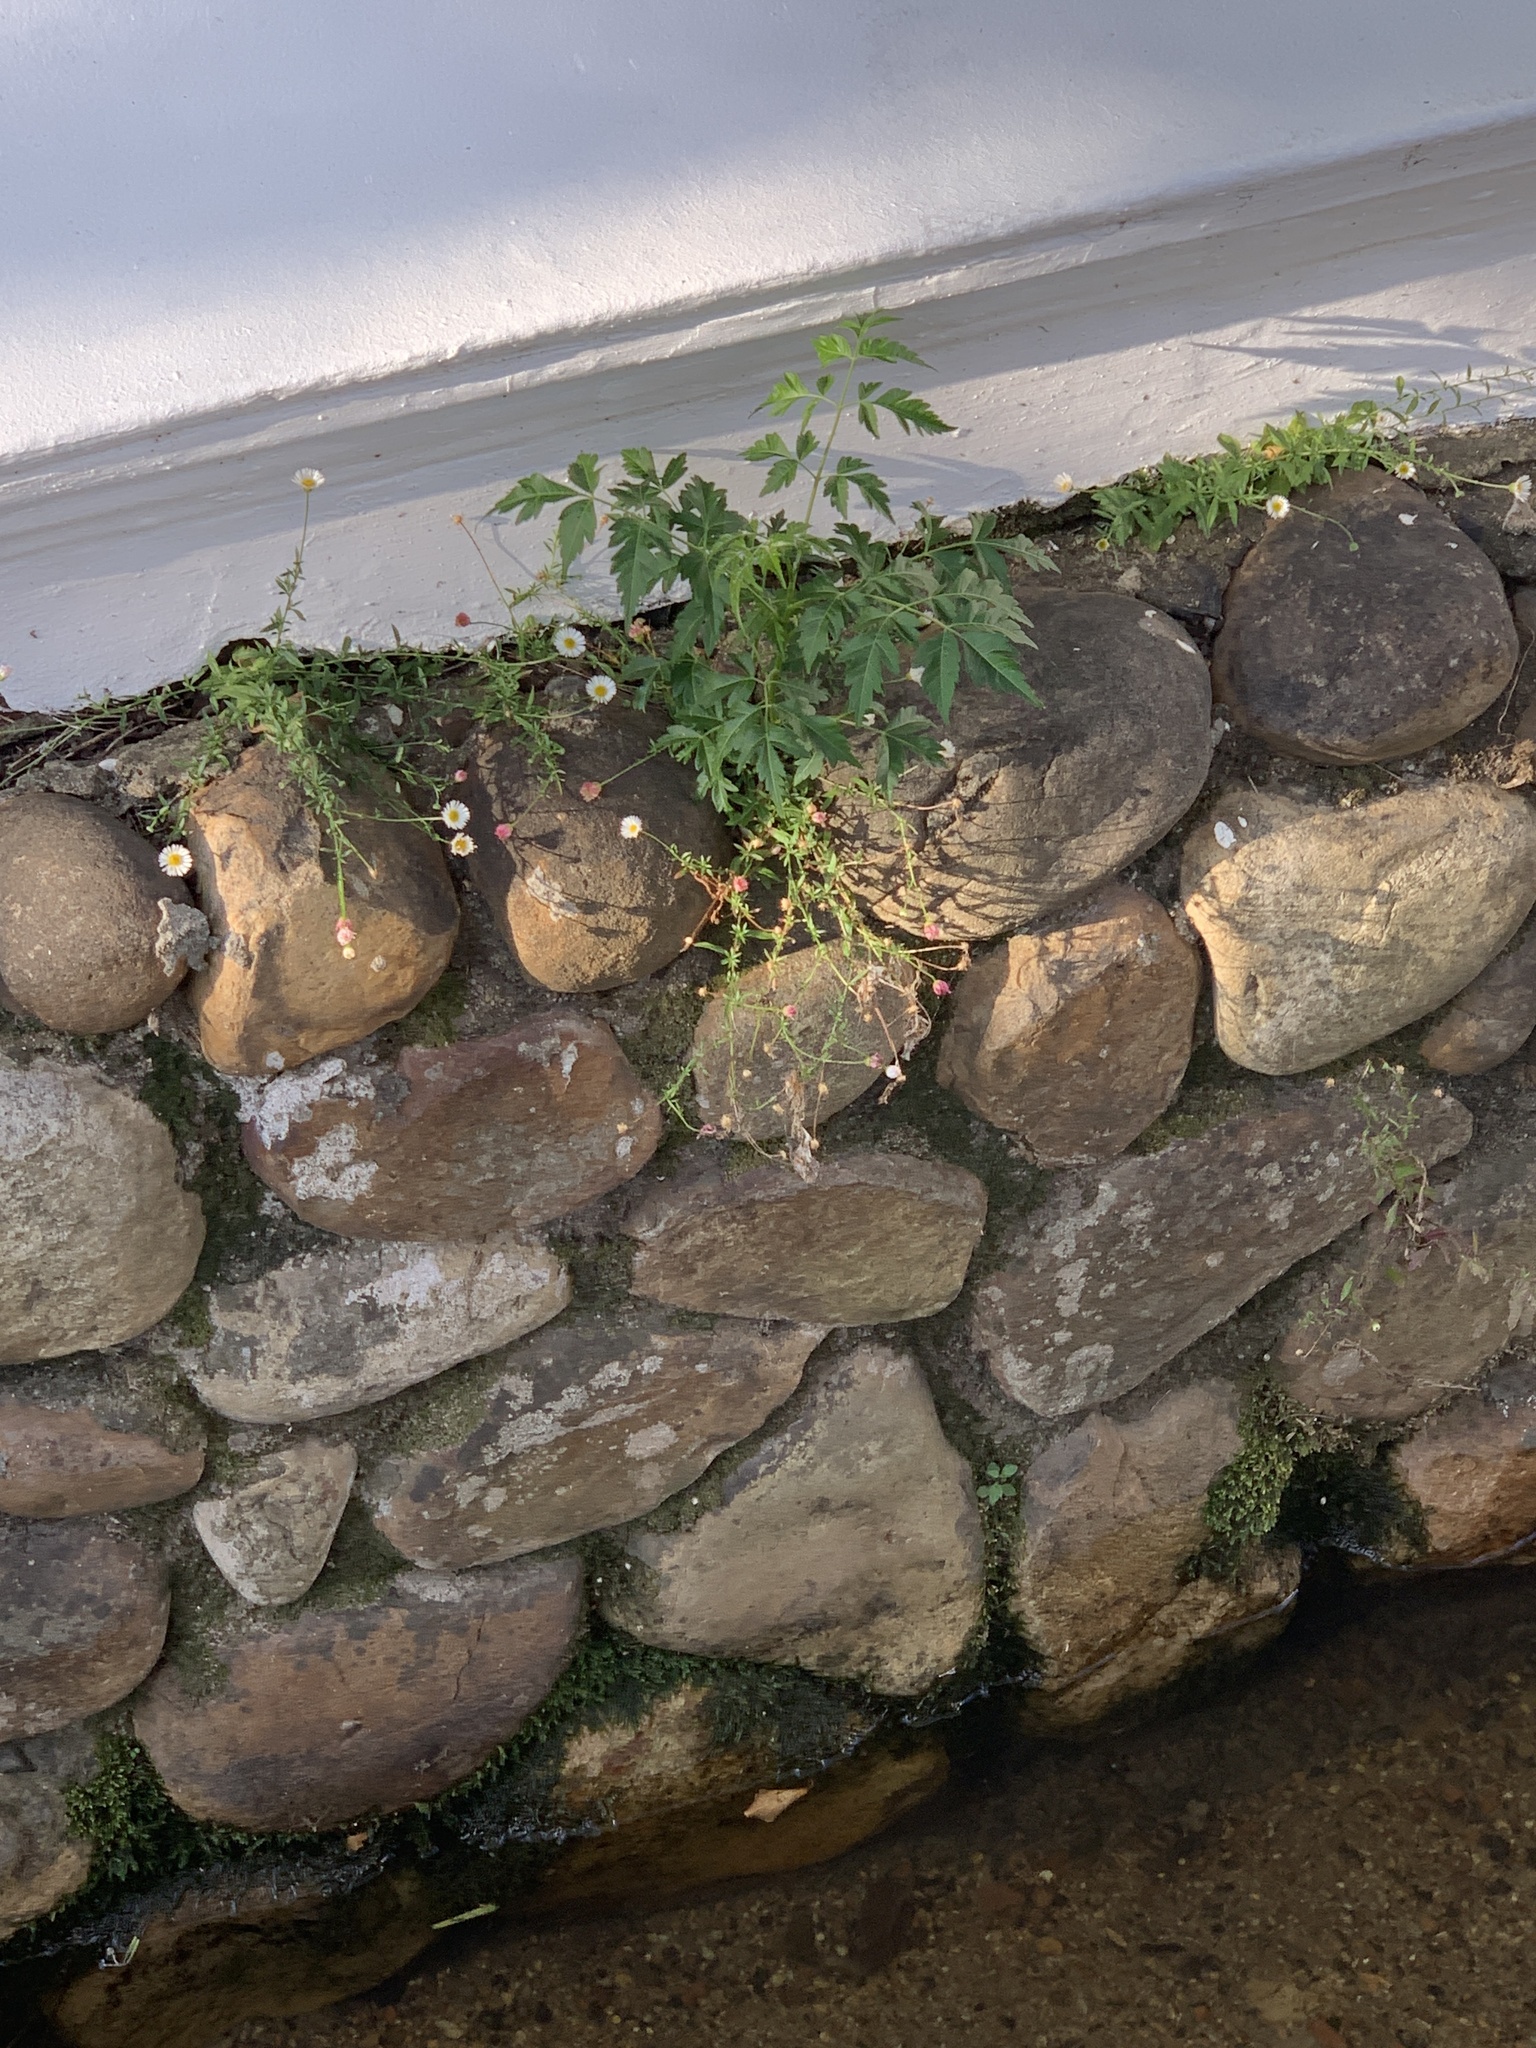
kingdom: Plantae
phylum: Tracheophyta
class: Magnoliopsida
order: Sapindales
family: Meliaceae
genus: Melia
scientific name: Melia azedarach
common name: Chinaberrytree
